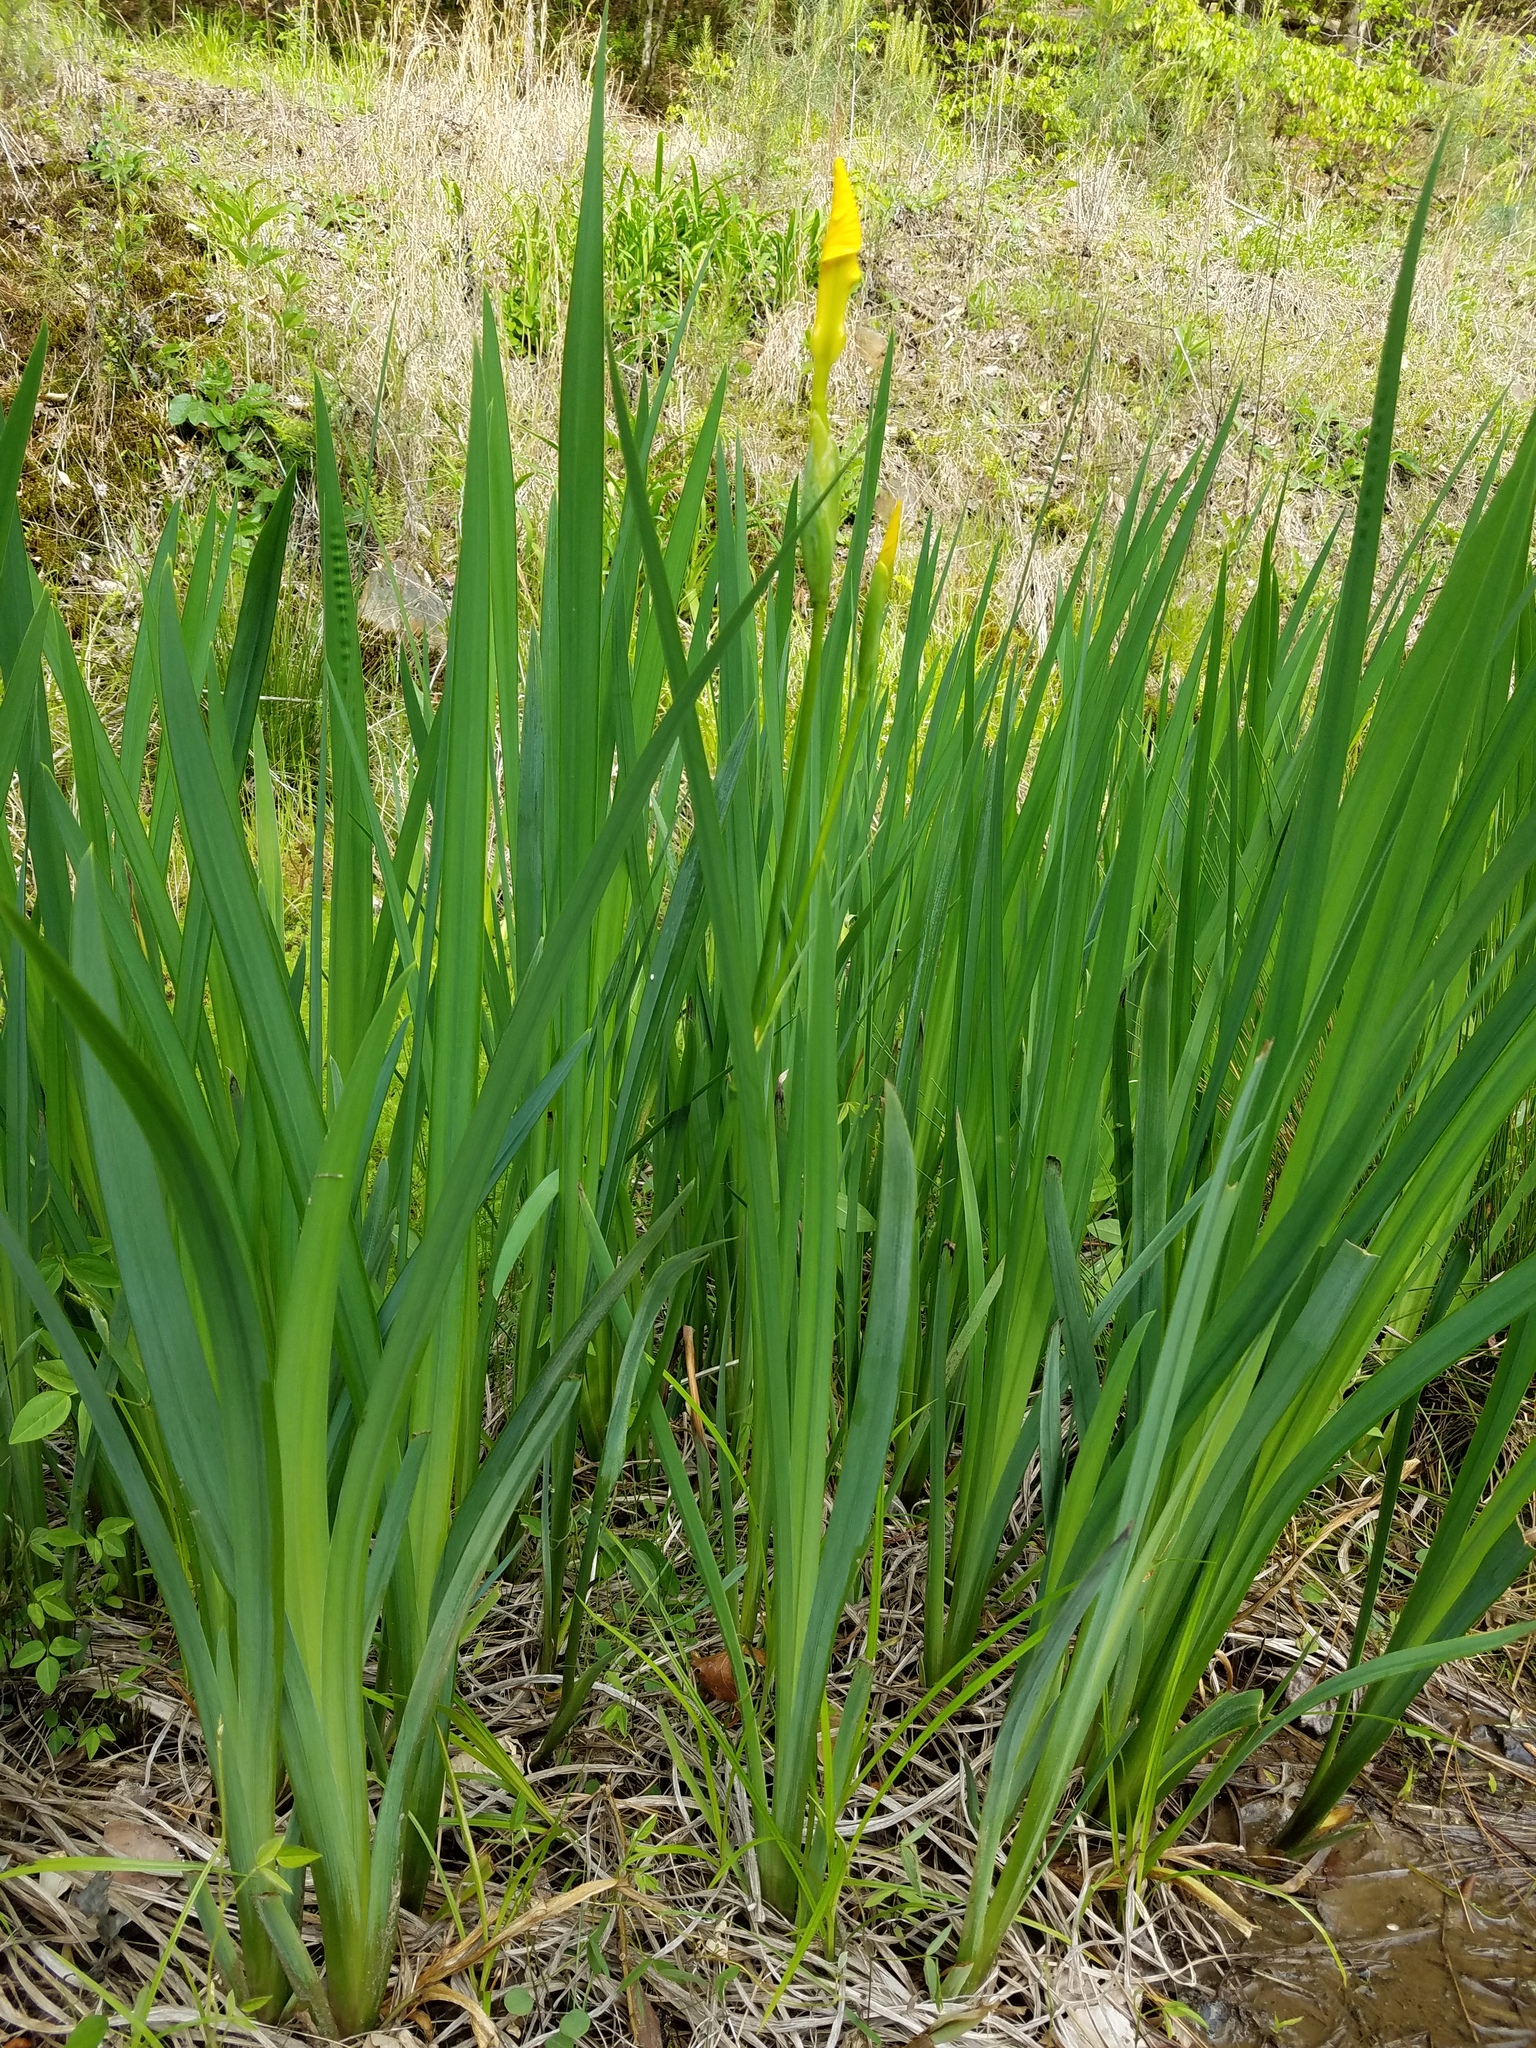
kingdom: Plantae
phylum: Tracheophyta
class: Liliopsida
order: Asparagales
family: Iridaceae
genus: Iris
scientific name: Iris pseudacorus
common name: Yellow flag
